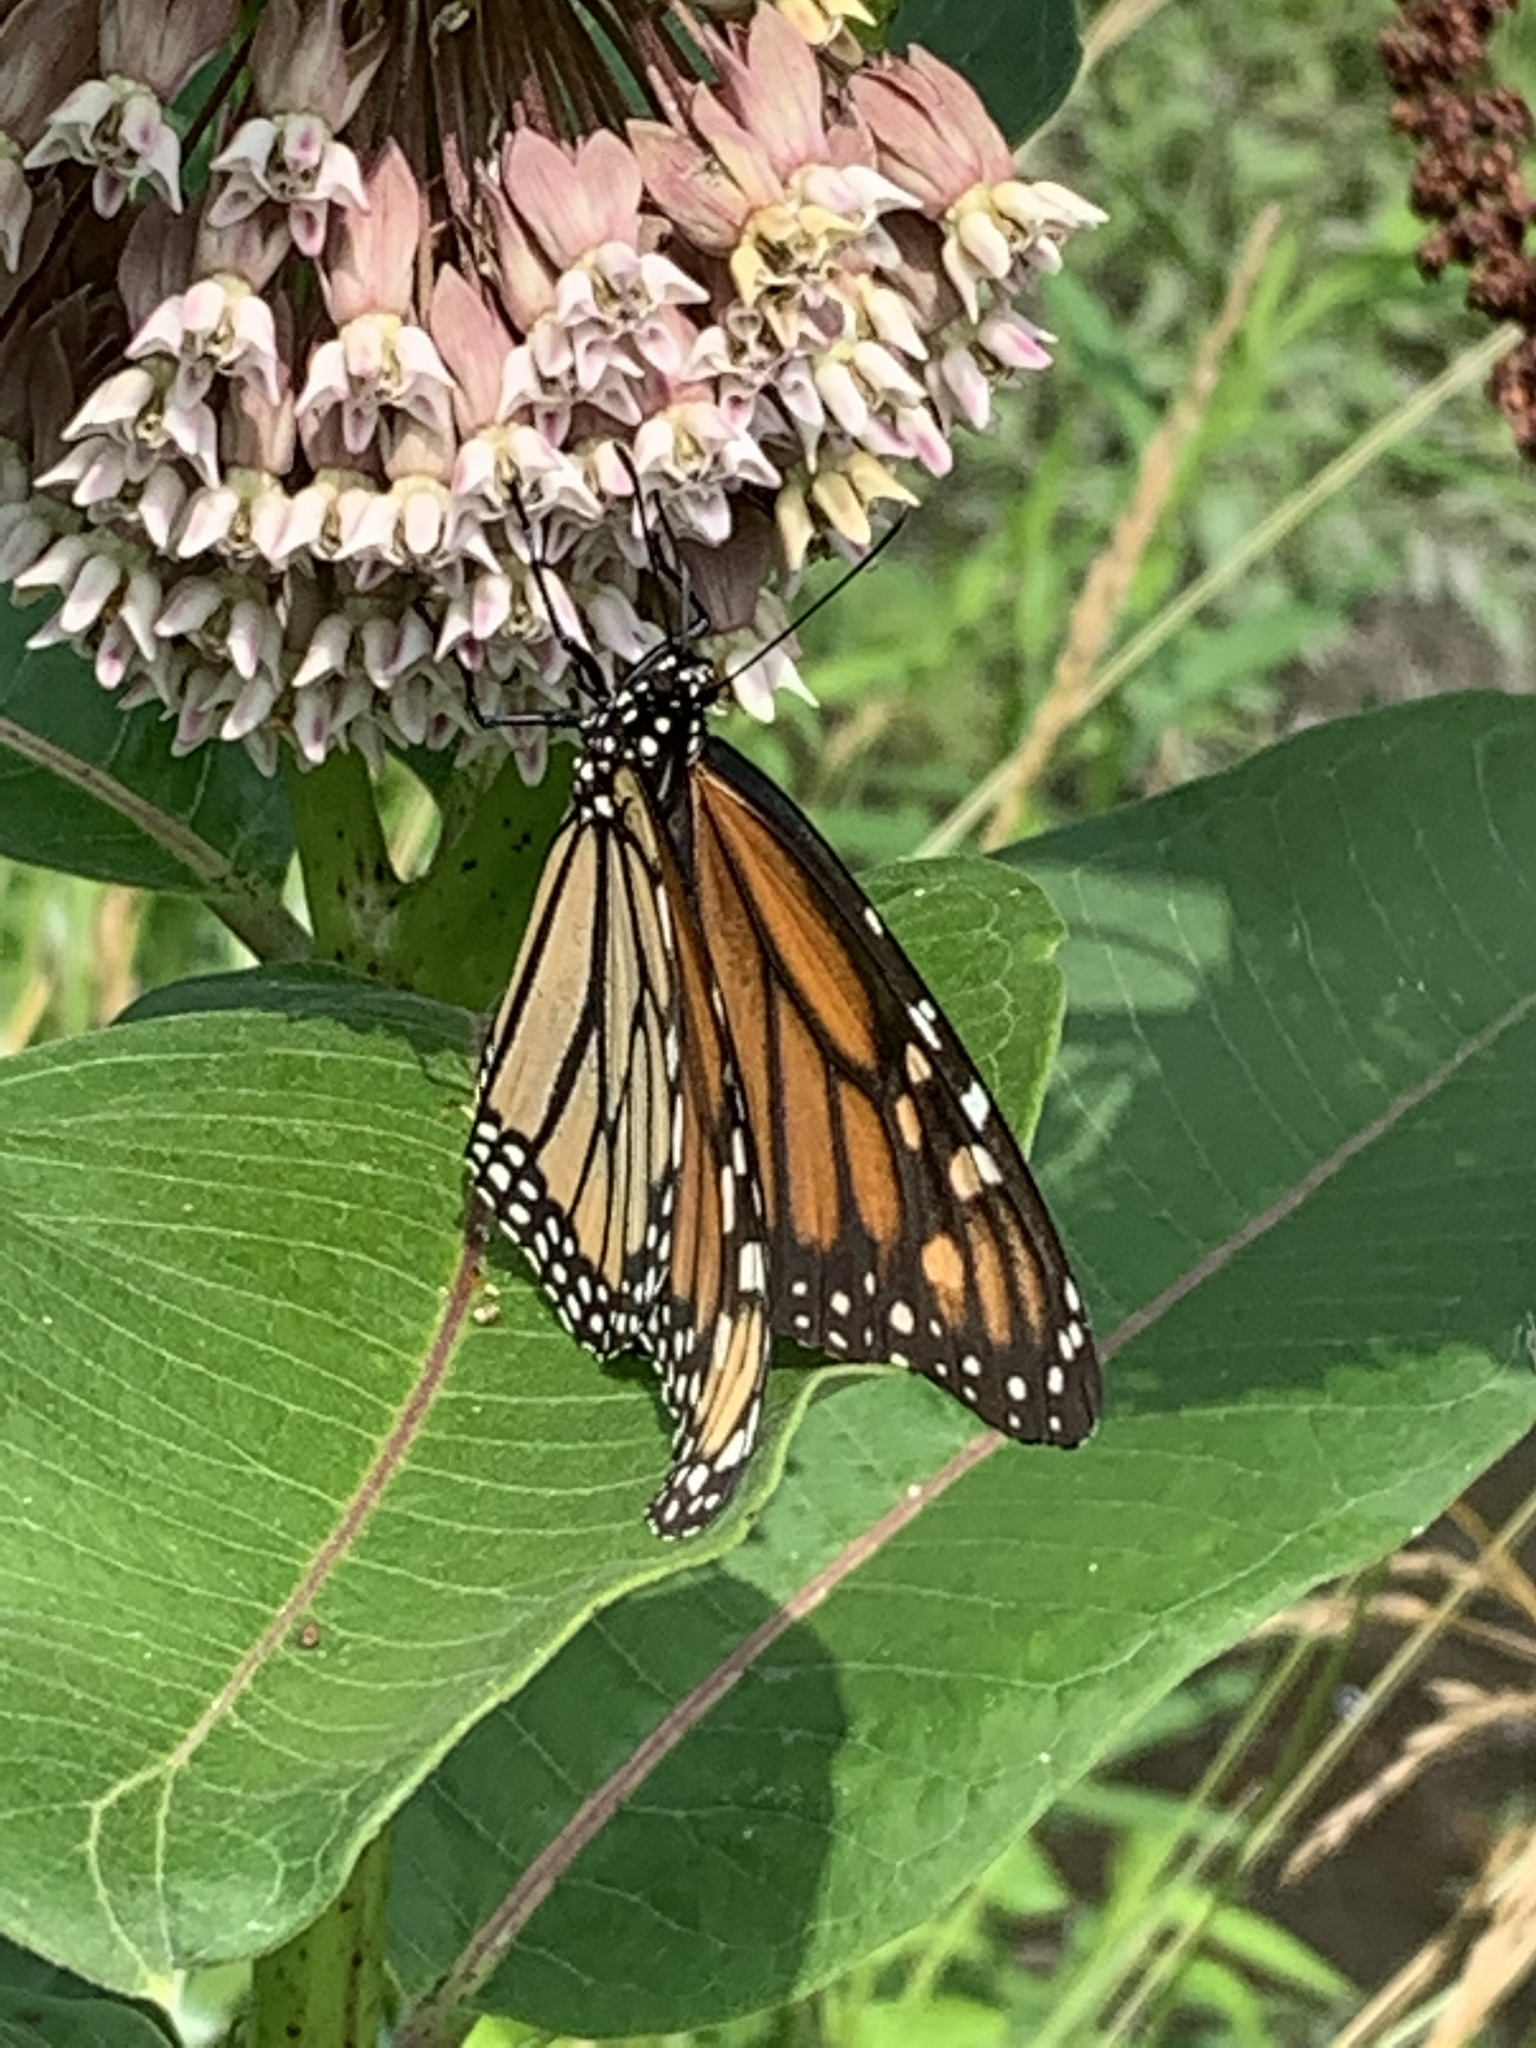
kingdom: Animalia
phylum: Arthropoda
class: Insecta
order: Lepidoptera
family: Nymphalidae
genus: Danaus
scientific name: Danaus plexippus
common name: Monarch
